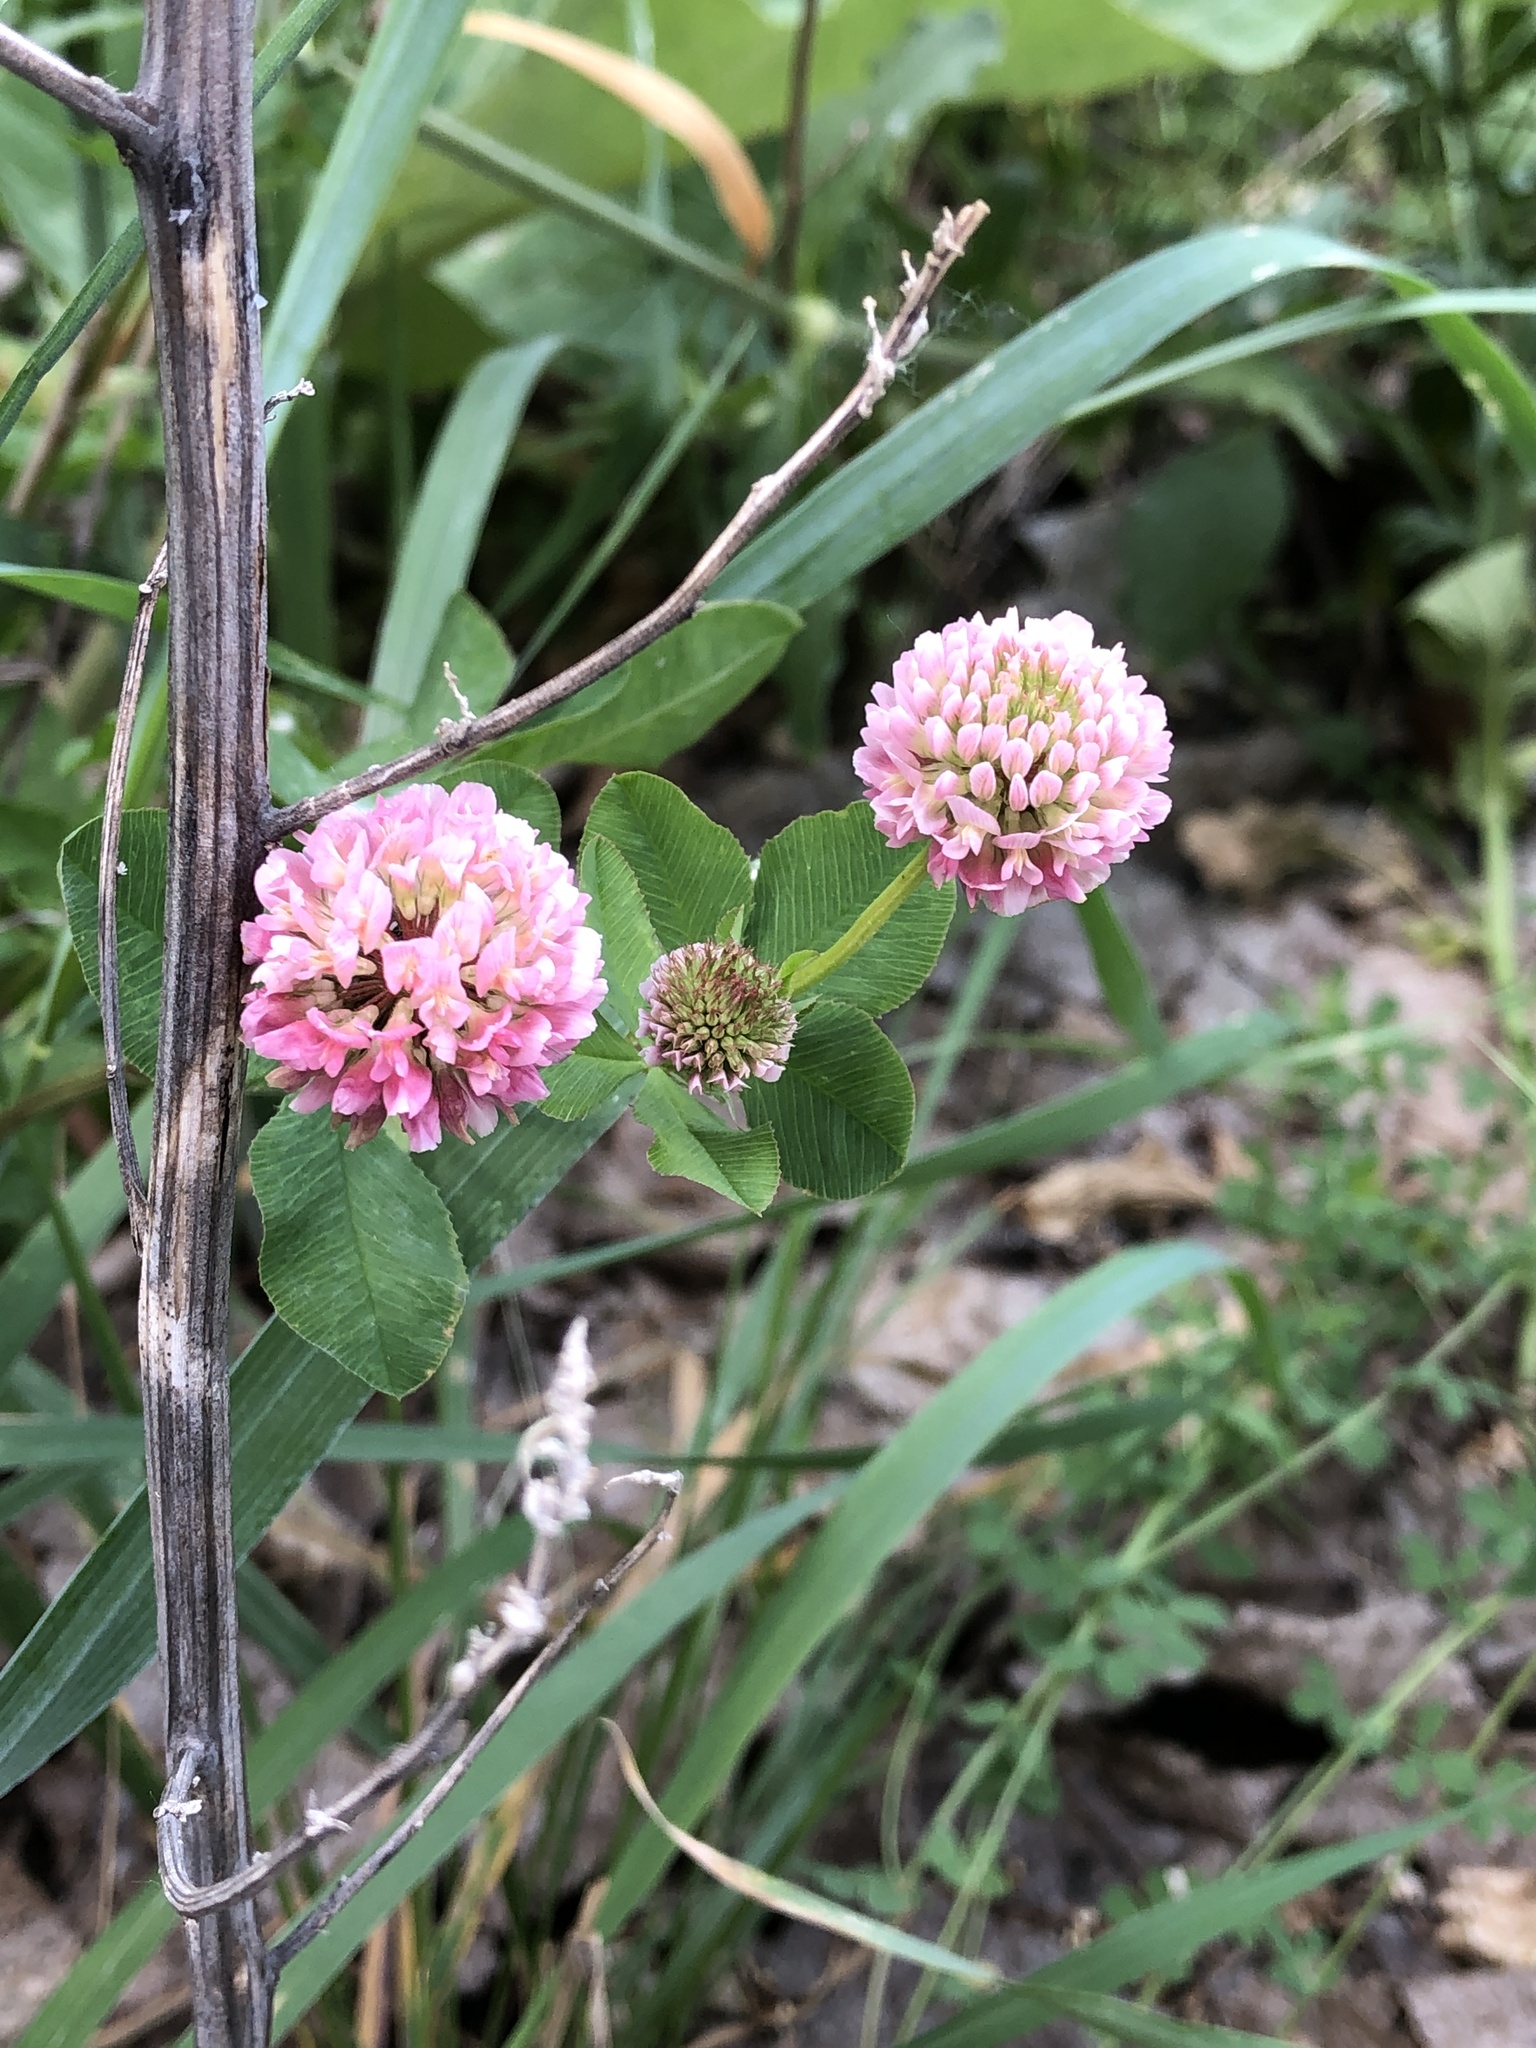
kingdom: Plantae
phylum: Tracheophyta
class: Magnoliopsida
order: Fabales
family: Fabaceae
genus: Trifolium
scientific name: Trifolium hybridum
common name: Alsike clover
